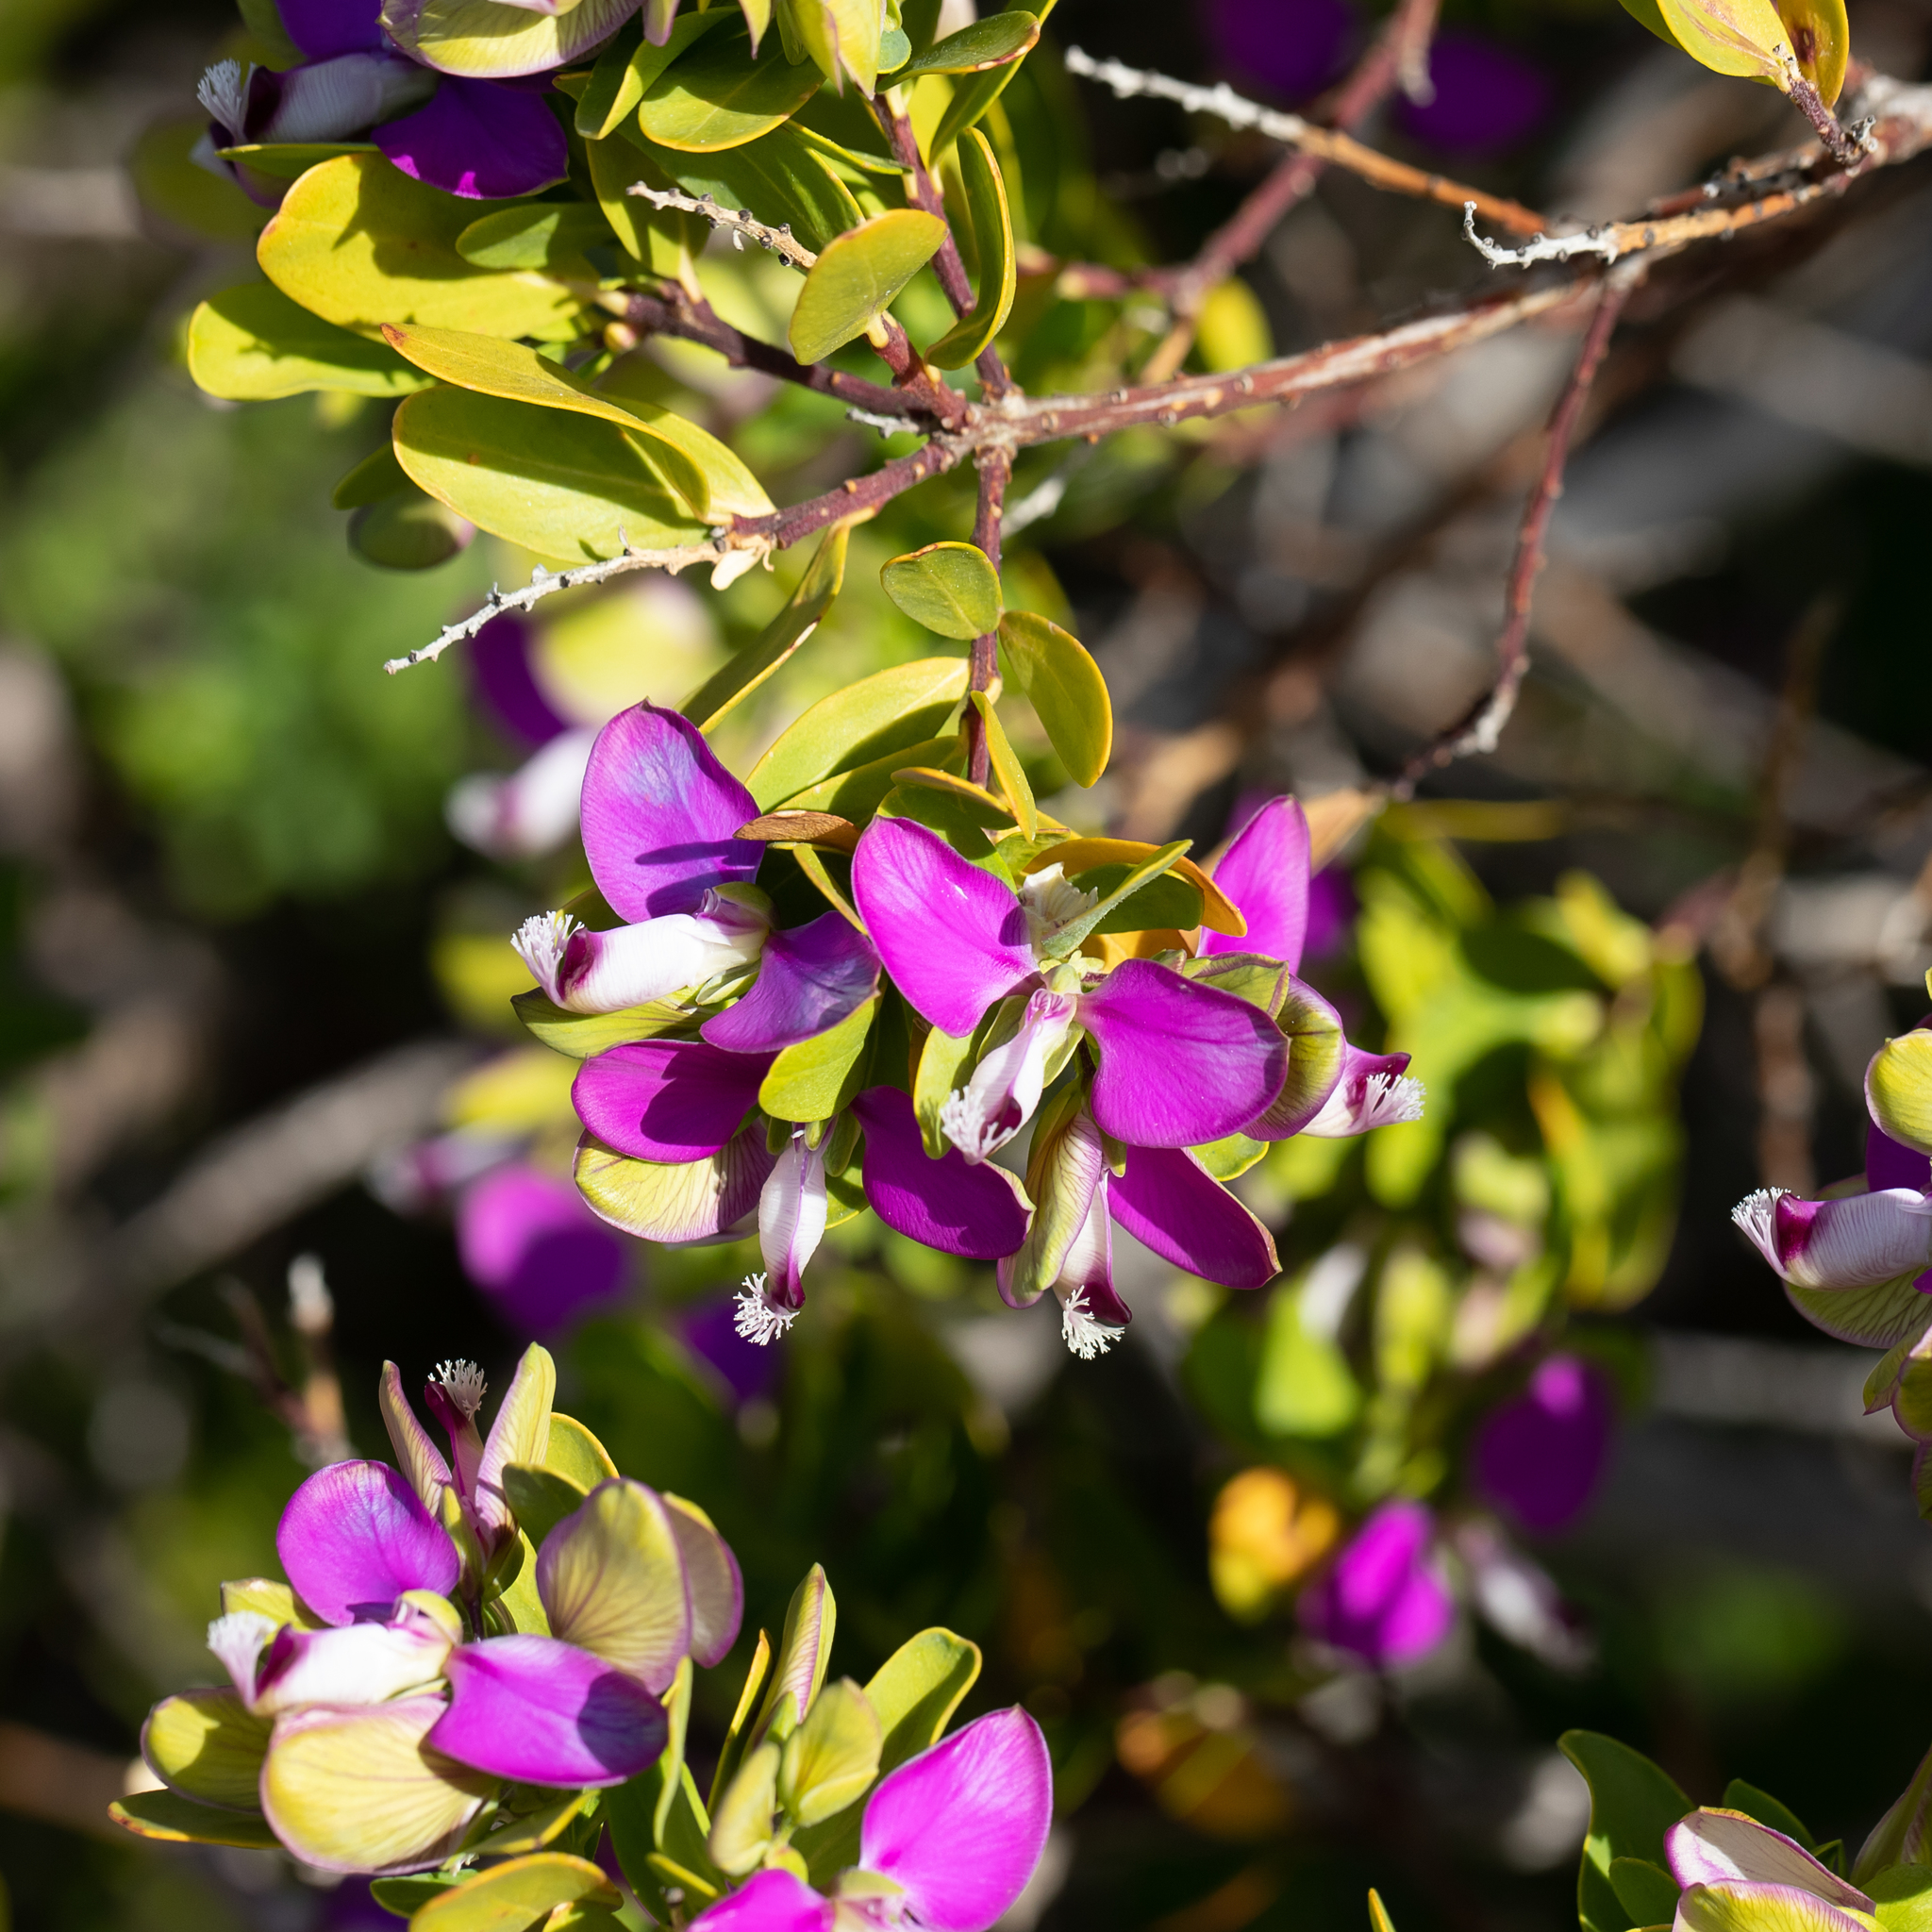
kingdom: Plantae
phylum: Tracheophyta
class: Magnoliopsida
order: Fabales
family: Polygalaceae
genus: Polygala
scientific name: Polygala myrtifolia
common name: Myrtle-leaf milkwort
